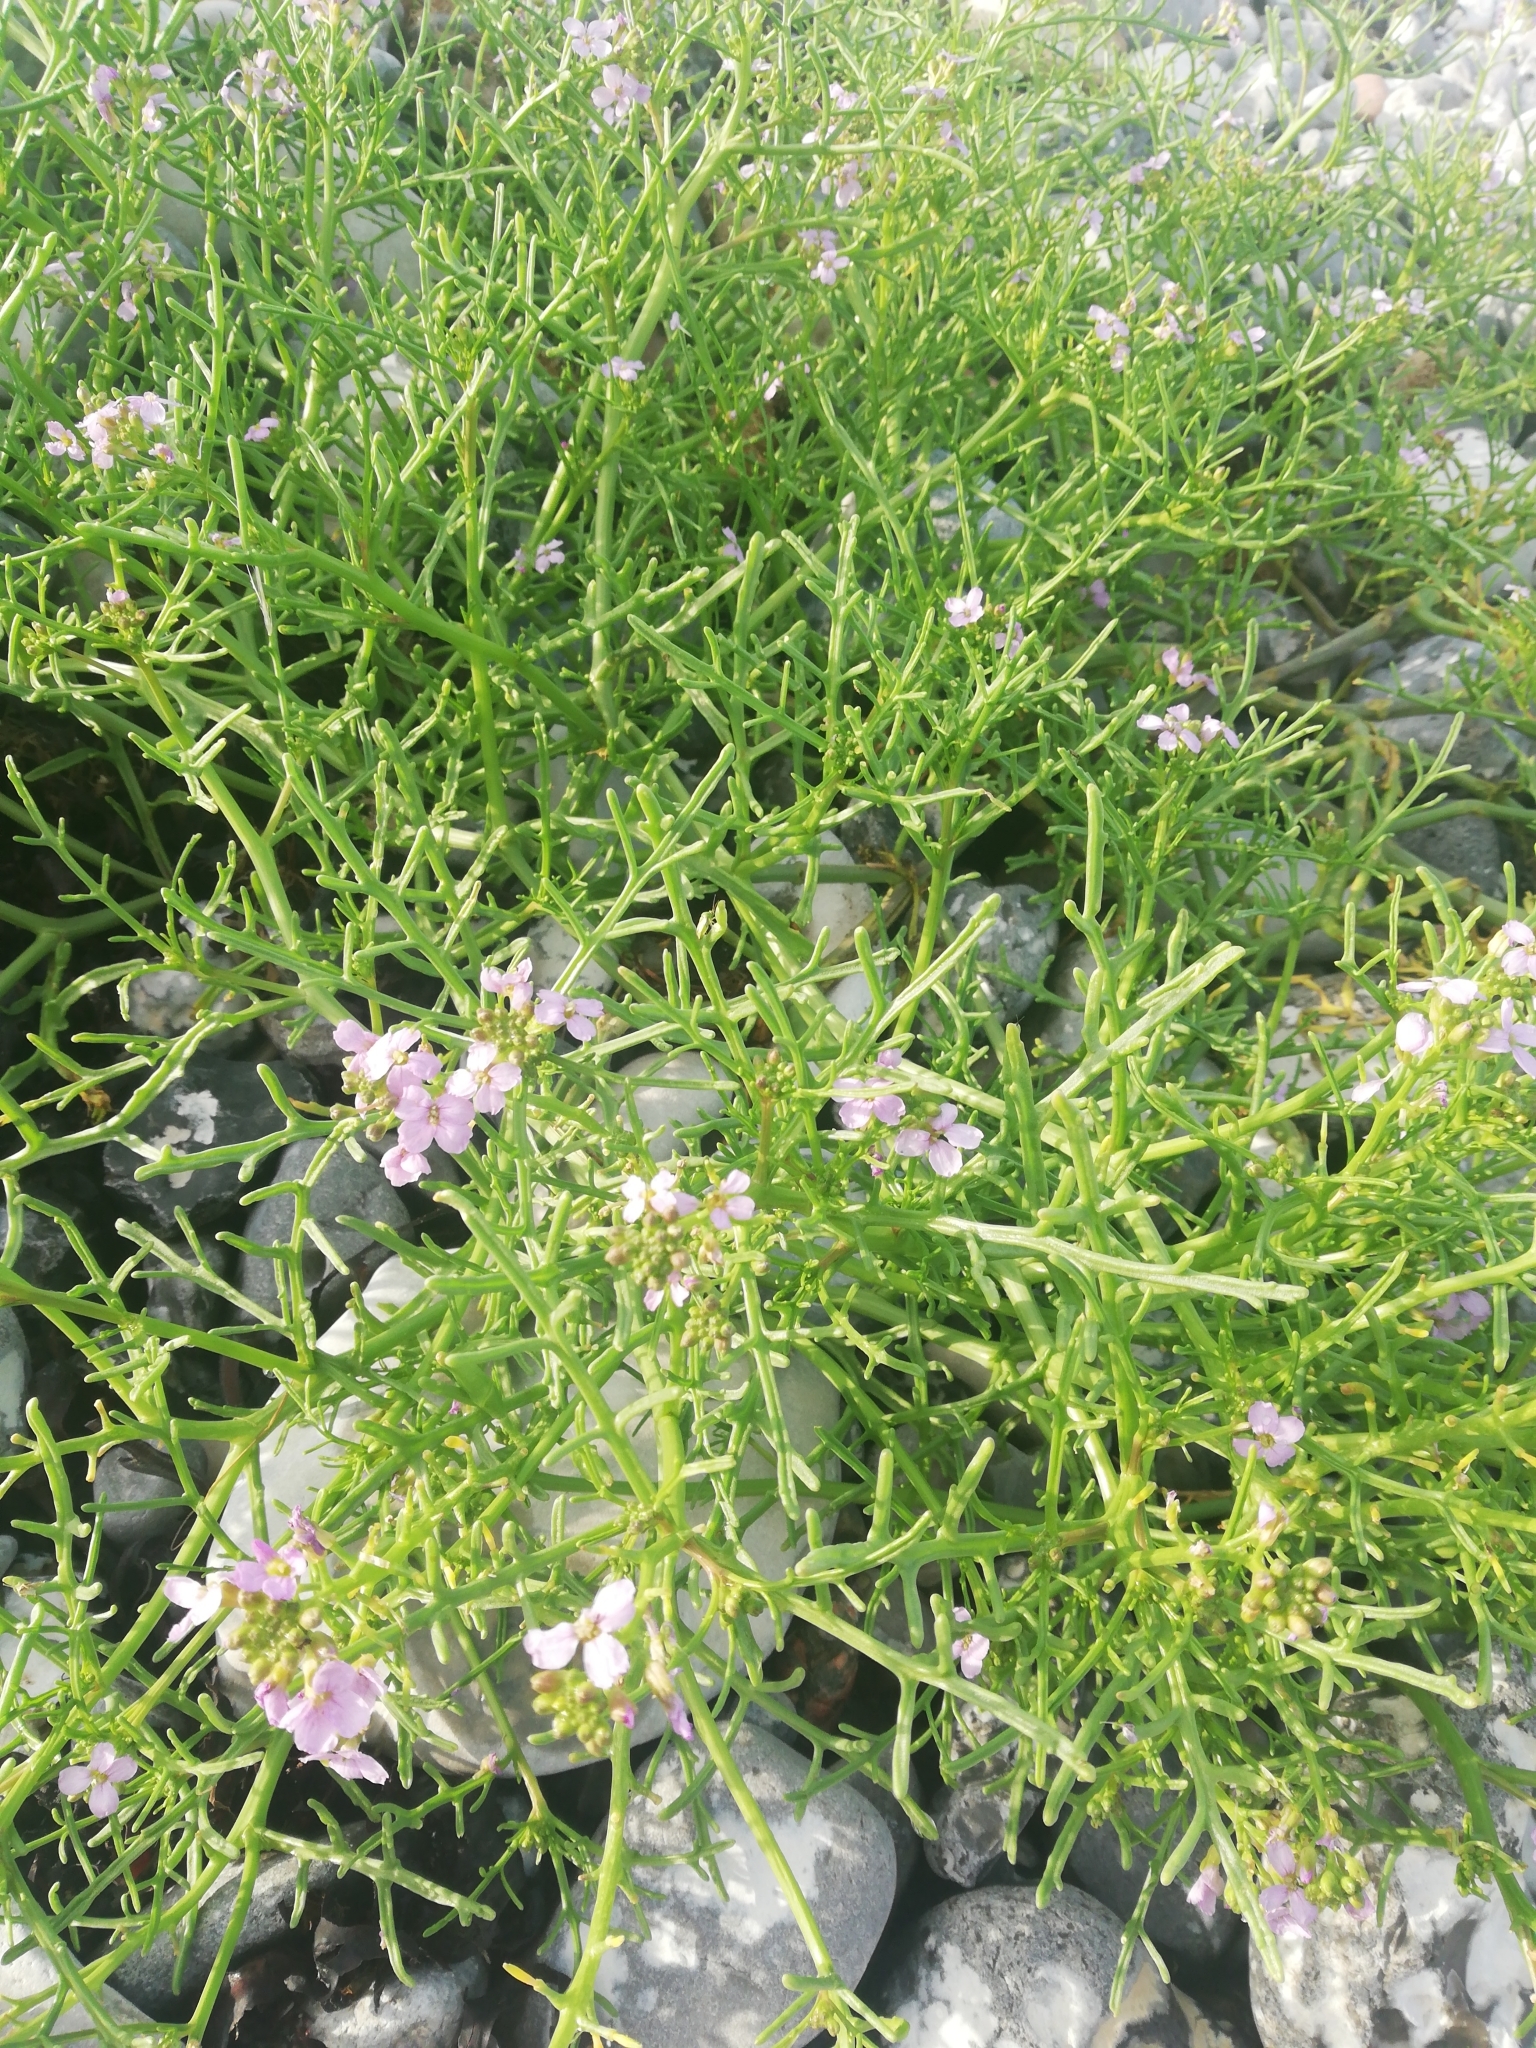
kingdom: Plantae
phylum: Tracheophyta
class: Magnoliopsida
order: Brassicales
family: Brassicaceae
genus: Cakile
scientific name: Cakile maritima
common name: Sea rocket
